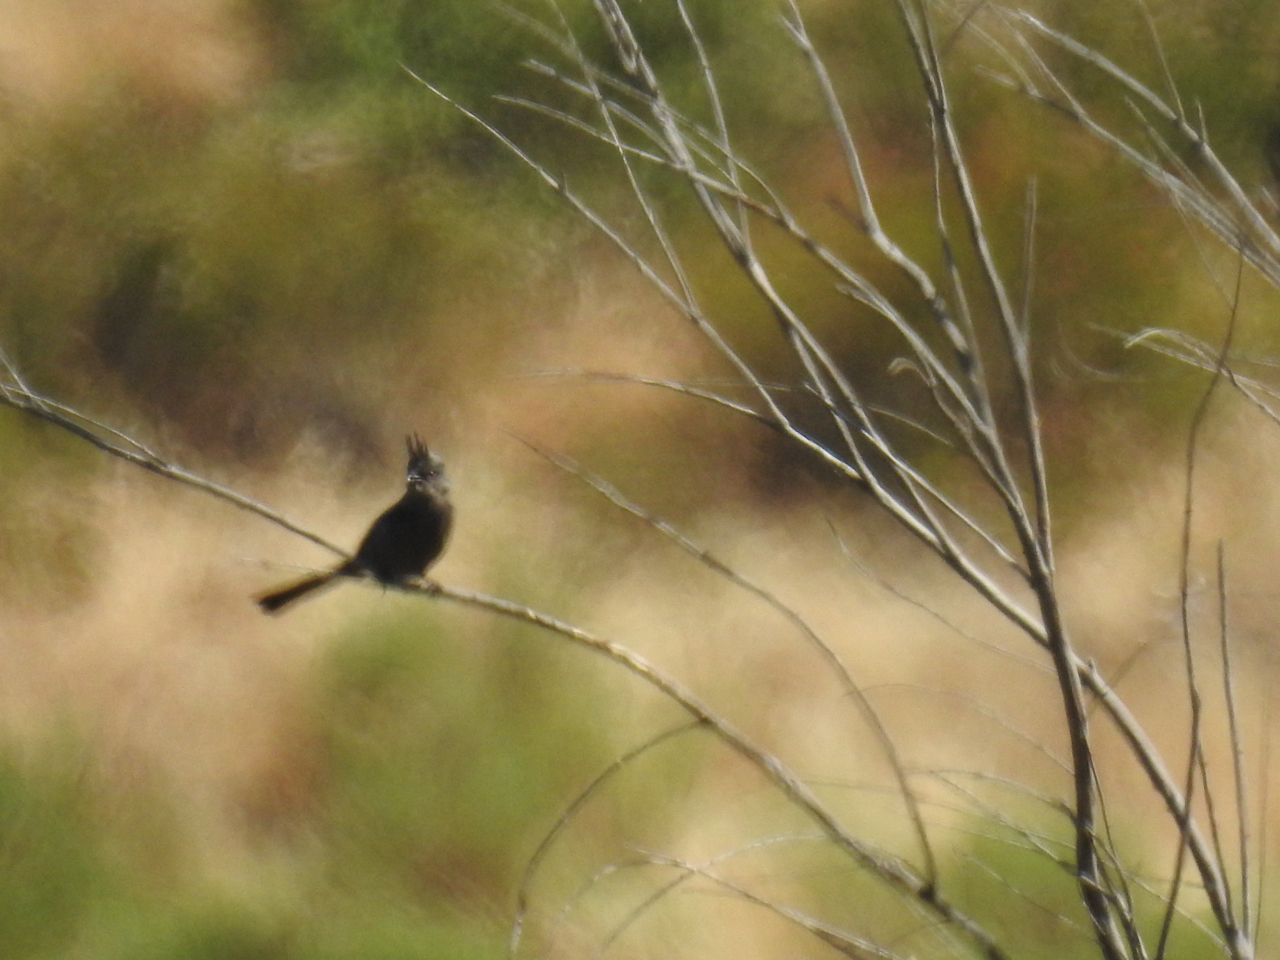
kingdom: Animalia
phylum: Chordata
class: Aves
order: Passeriformes
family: Ptilogonatidae
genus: Phainopepla
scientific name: Phainopepla nitens
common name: Phainopepla
